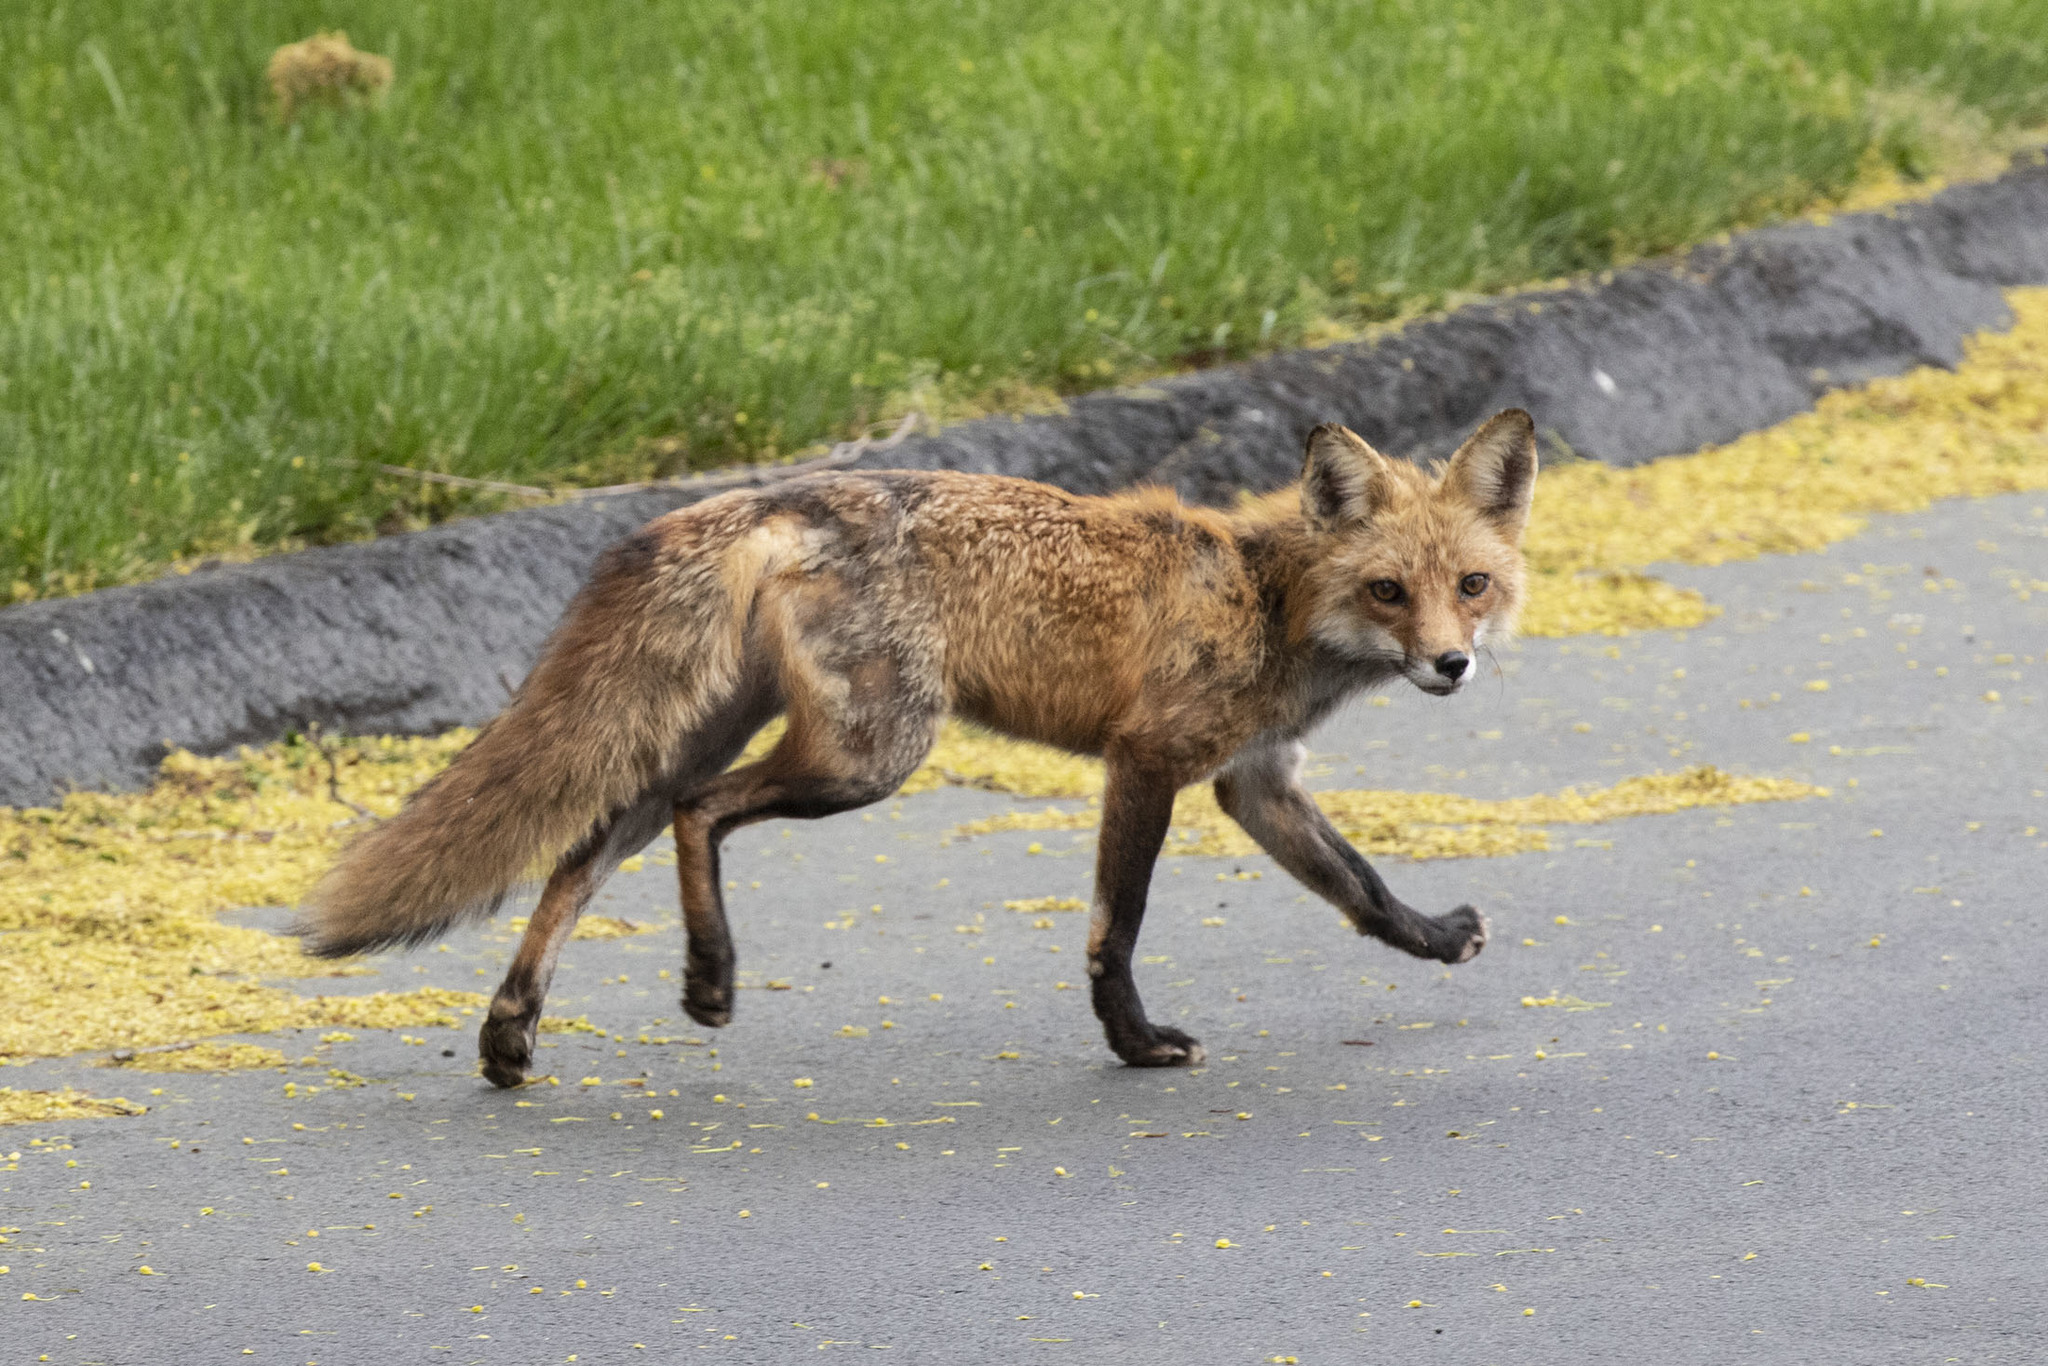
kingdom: Animalia
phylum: Chordata
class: Mammalia
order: Carnivora
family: Canidae
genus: Vulpes
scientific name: Vulpes vulpes
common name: Red fox
